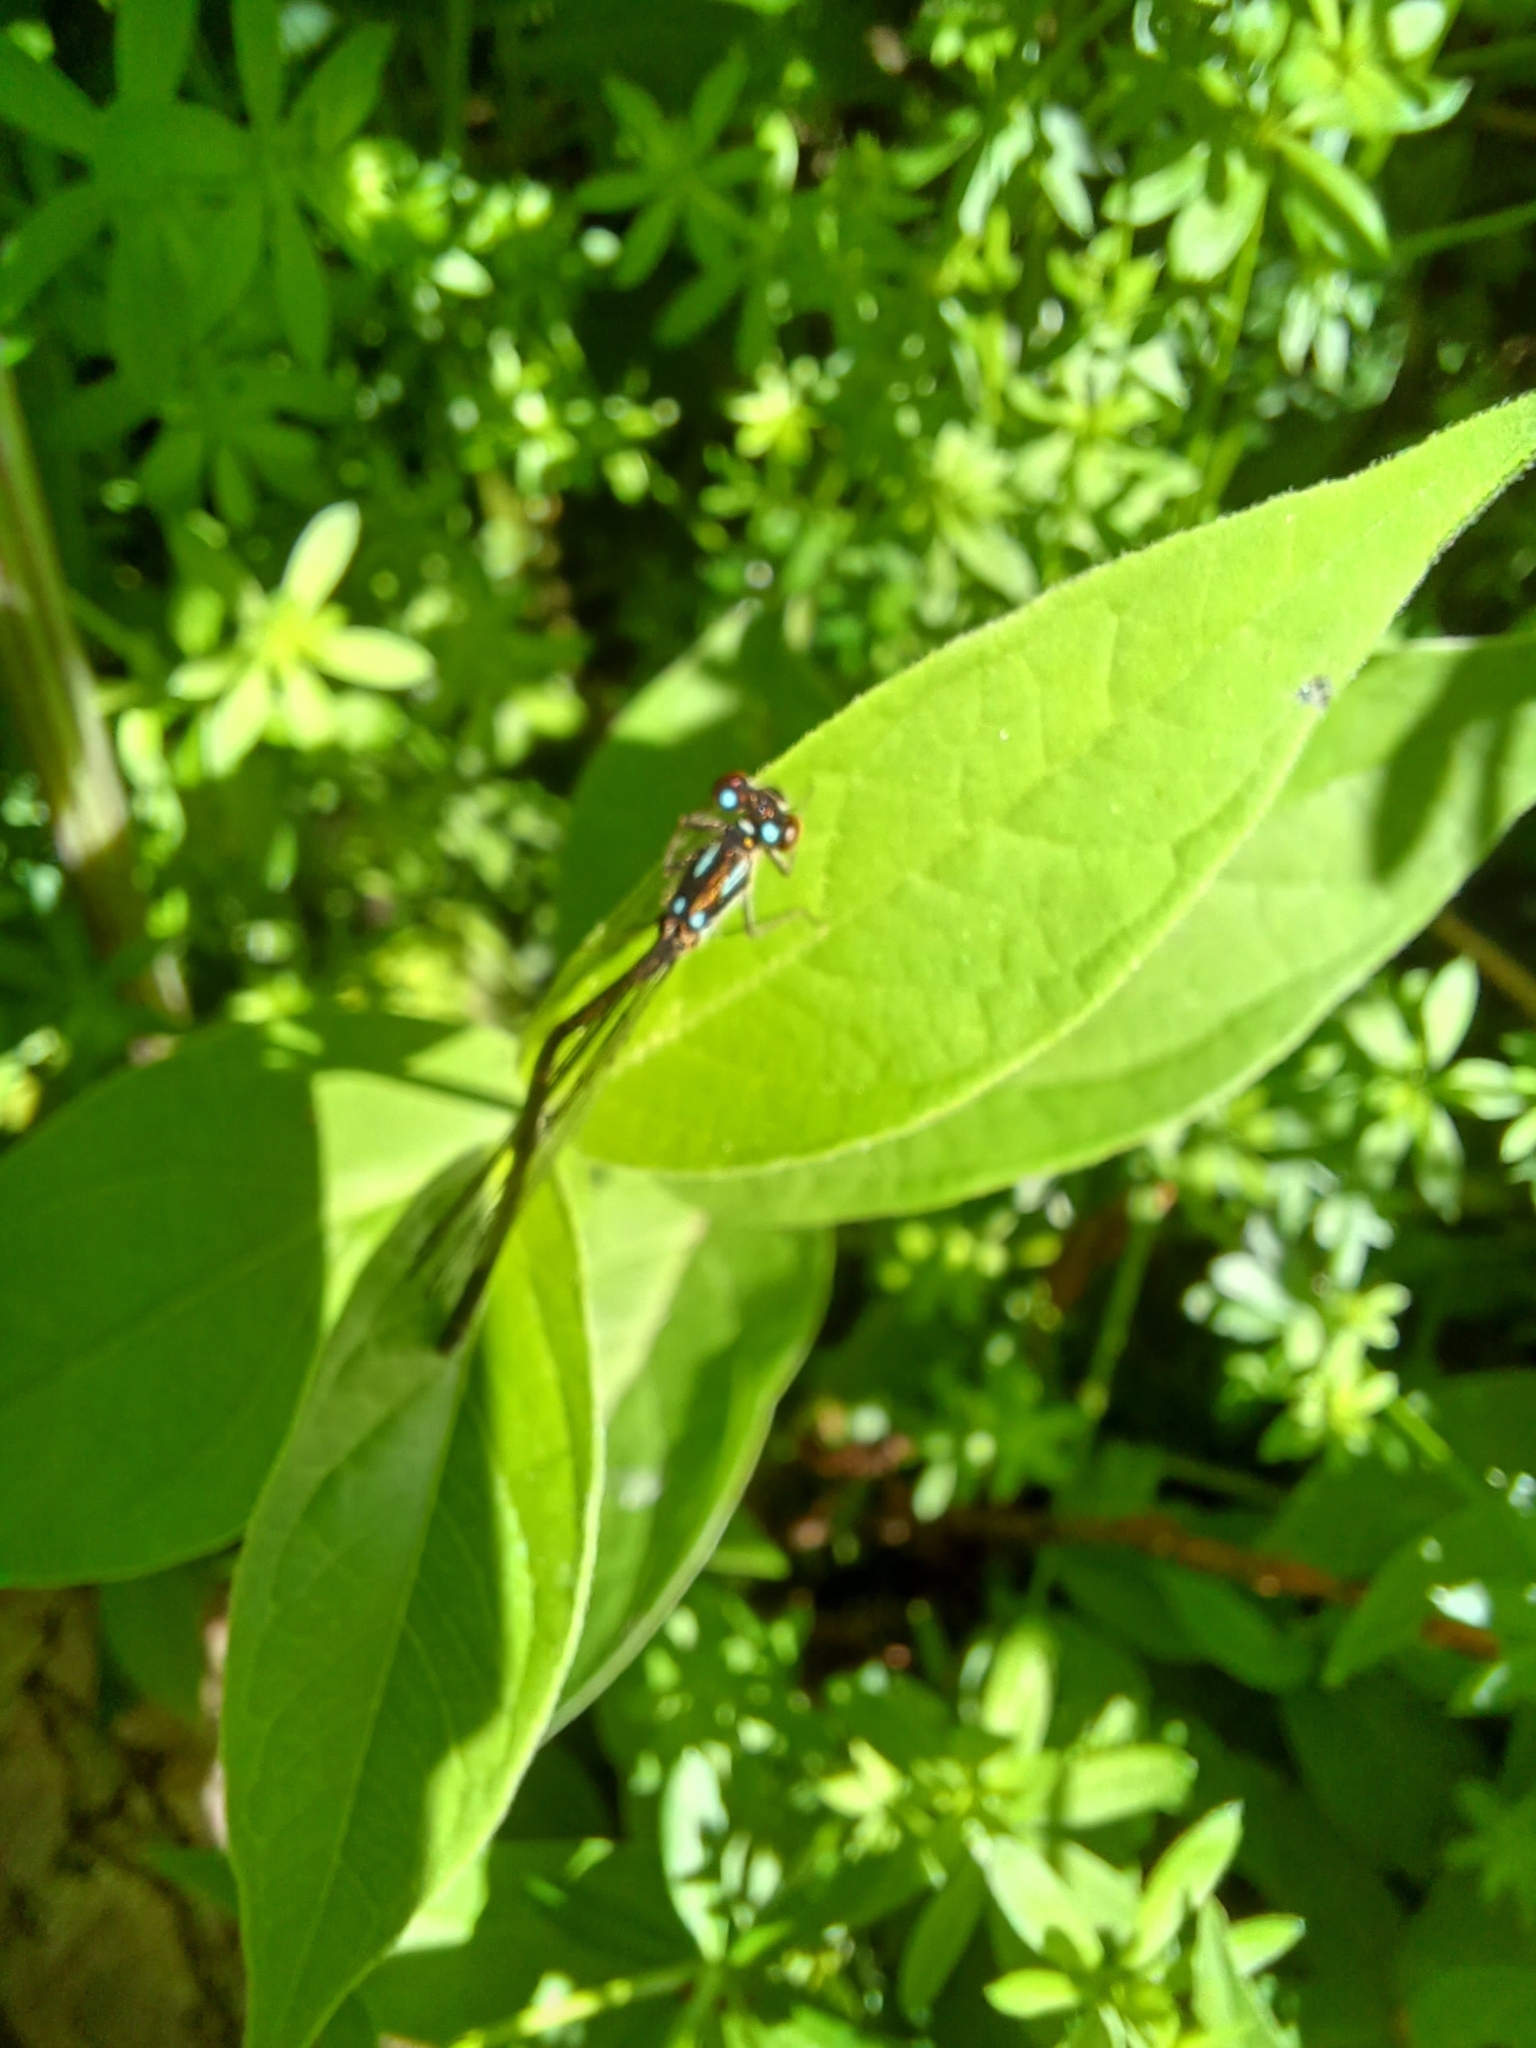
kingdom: Animalia
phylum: Arthropoda
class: Insecta
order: Odonata
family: Coenagrionidae
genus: Ischnura
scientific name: Ischnura posita
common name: Fragile forktail
